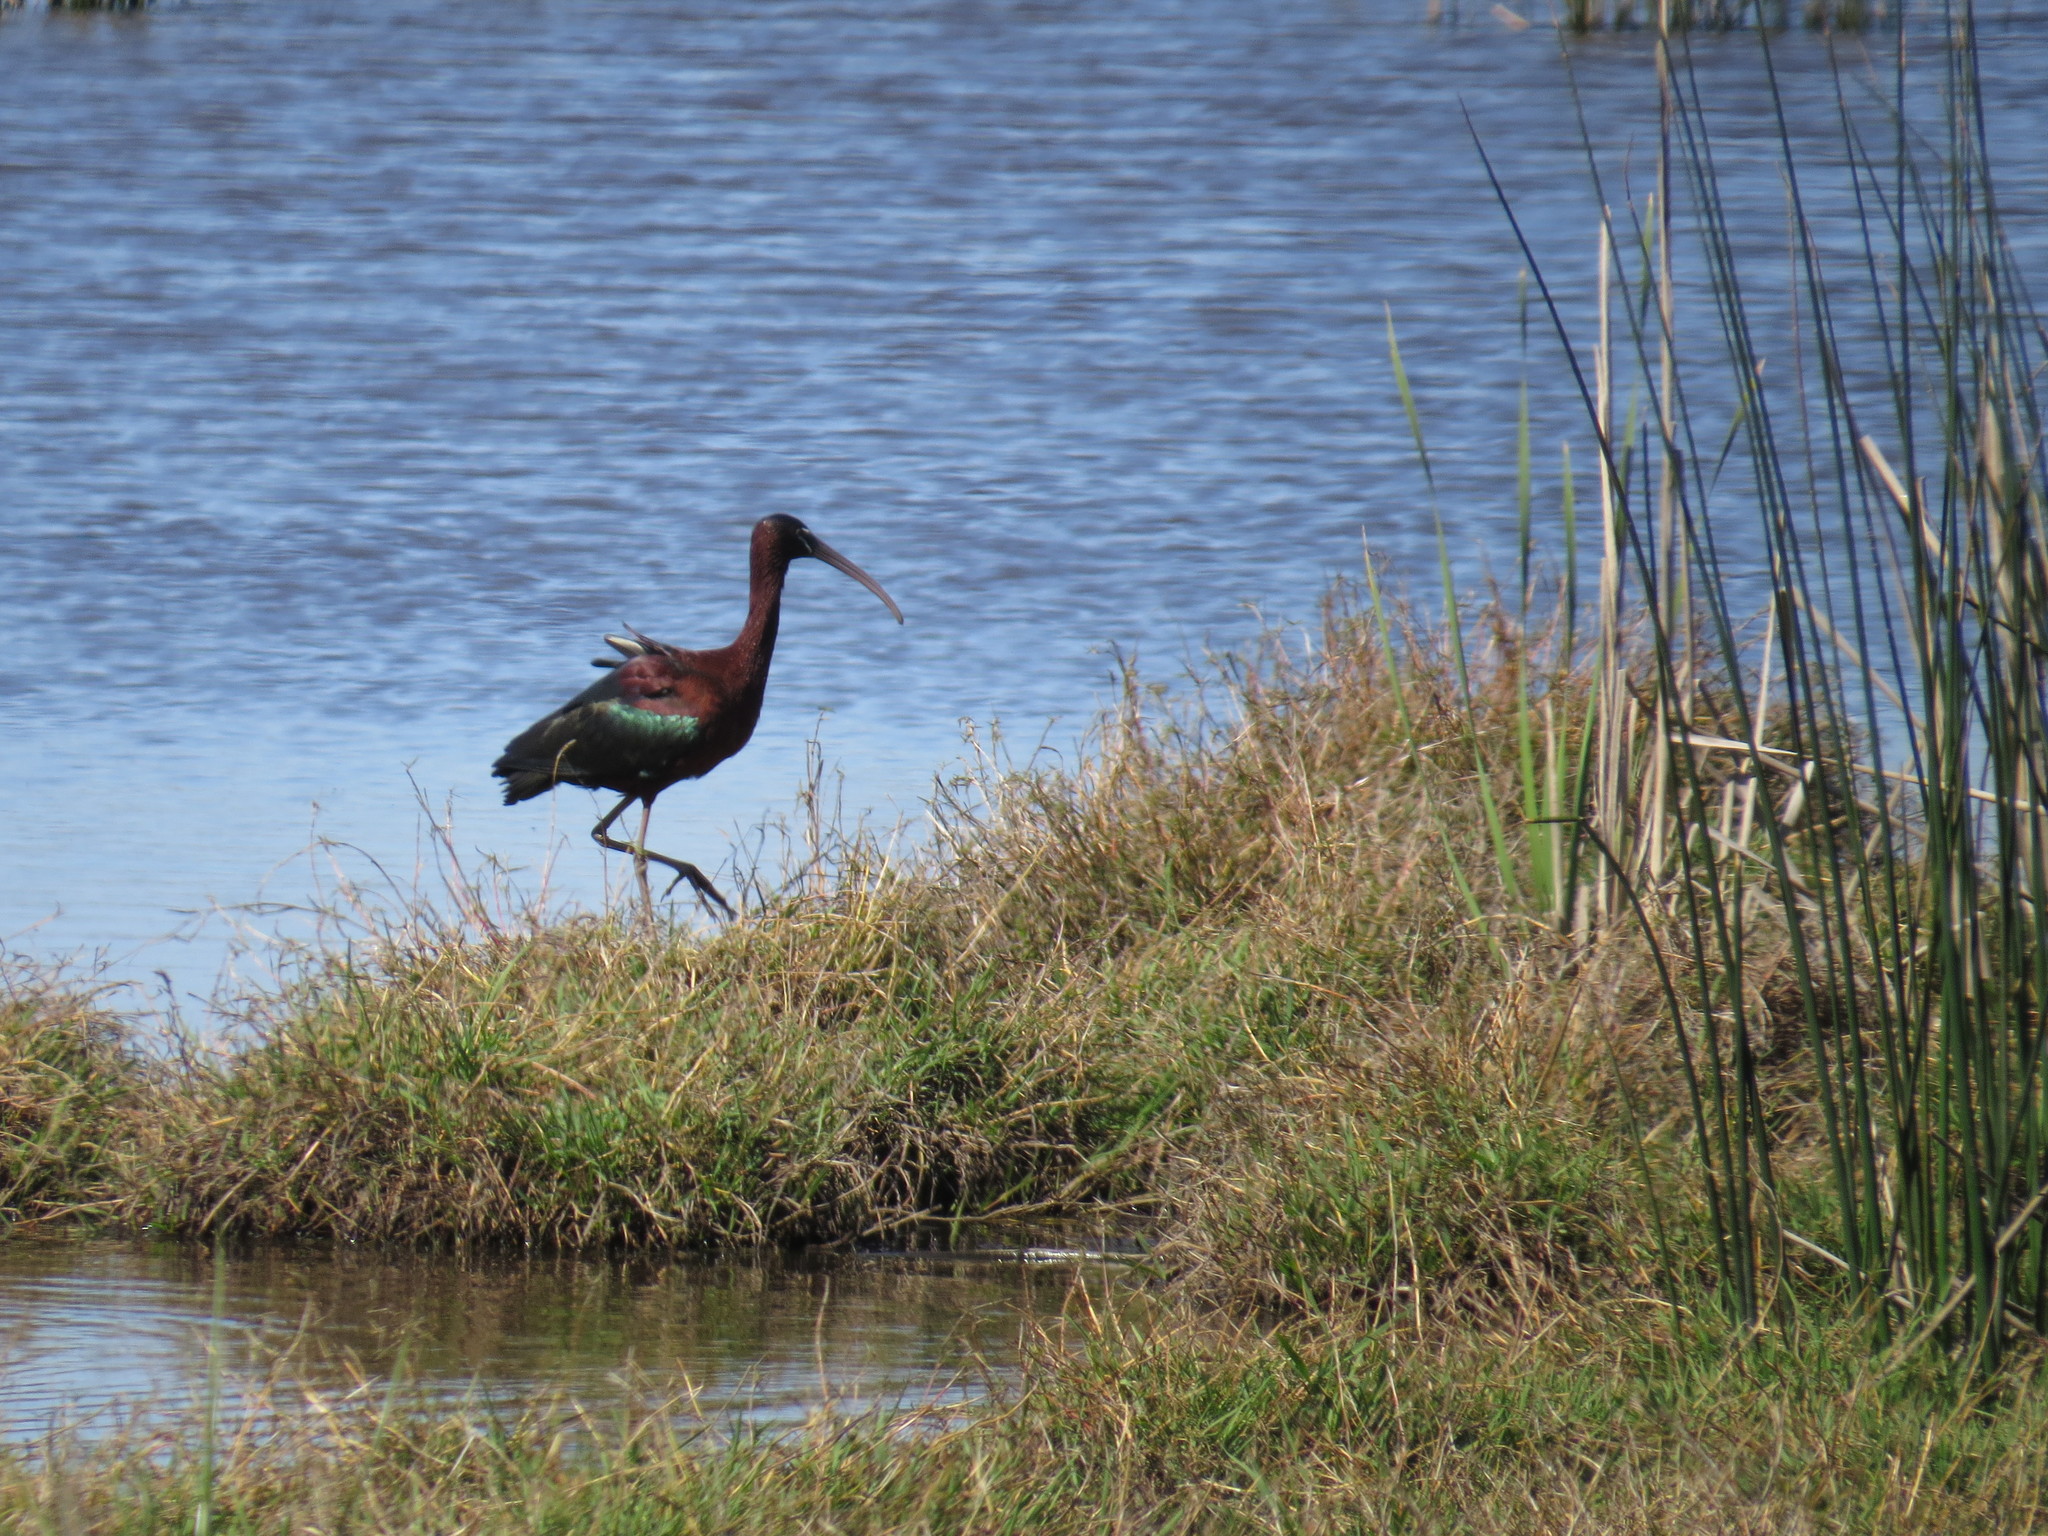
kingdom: Animalia
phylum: Chordata
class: Aves
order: Pelecaniformes
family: Threskiornithidae
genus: Plegadis
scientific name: Plegadis falcinellus
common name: Glossy ibis
